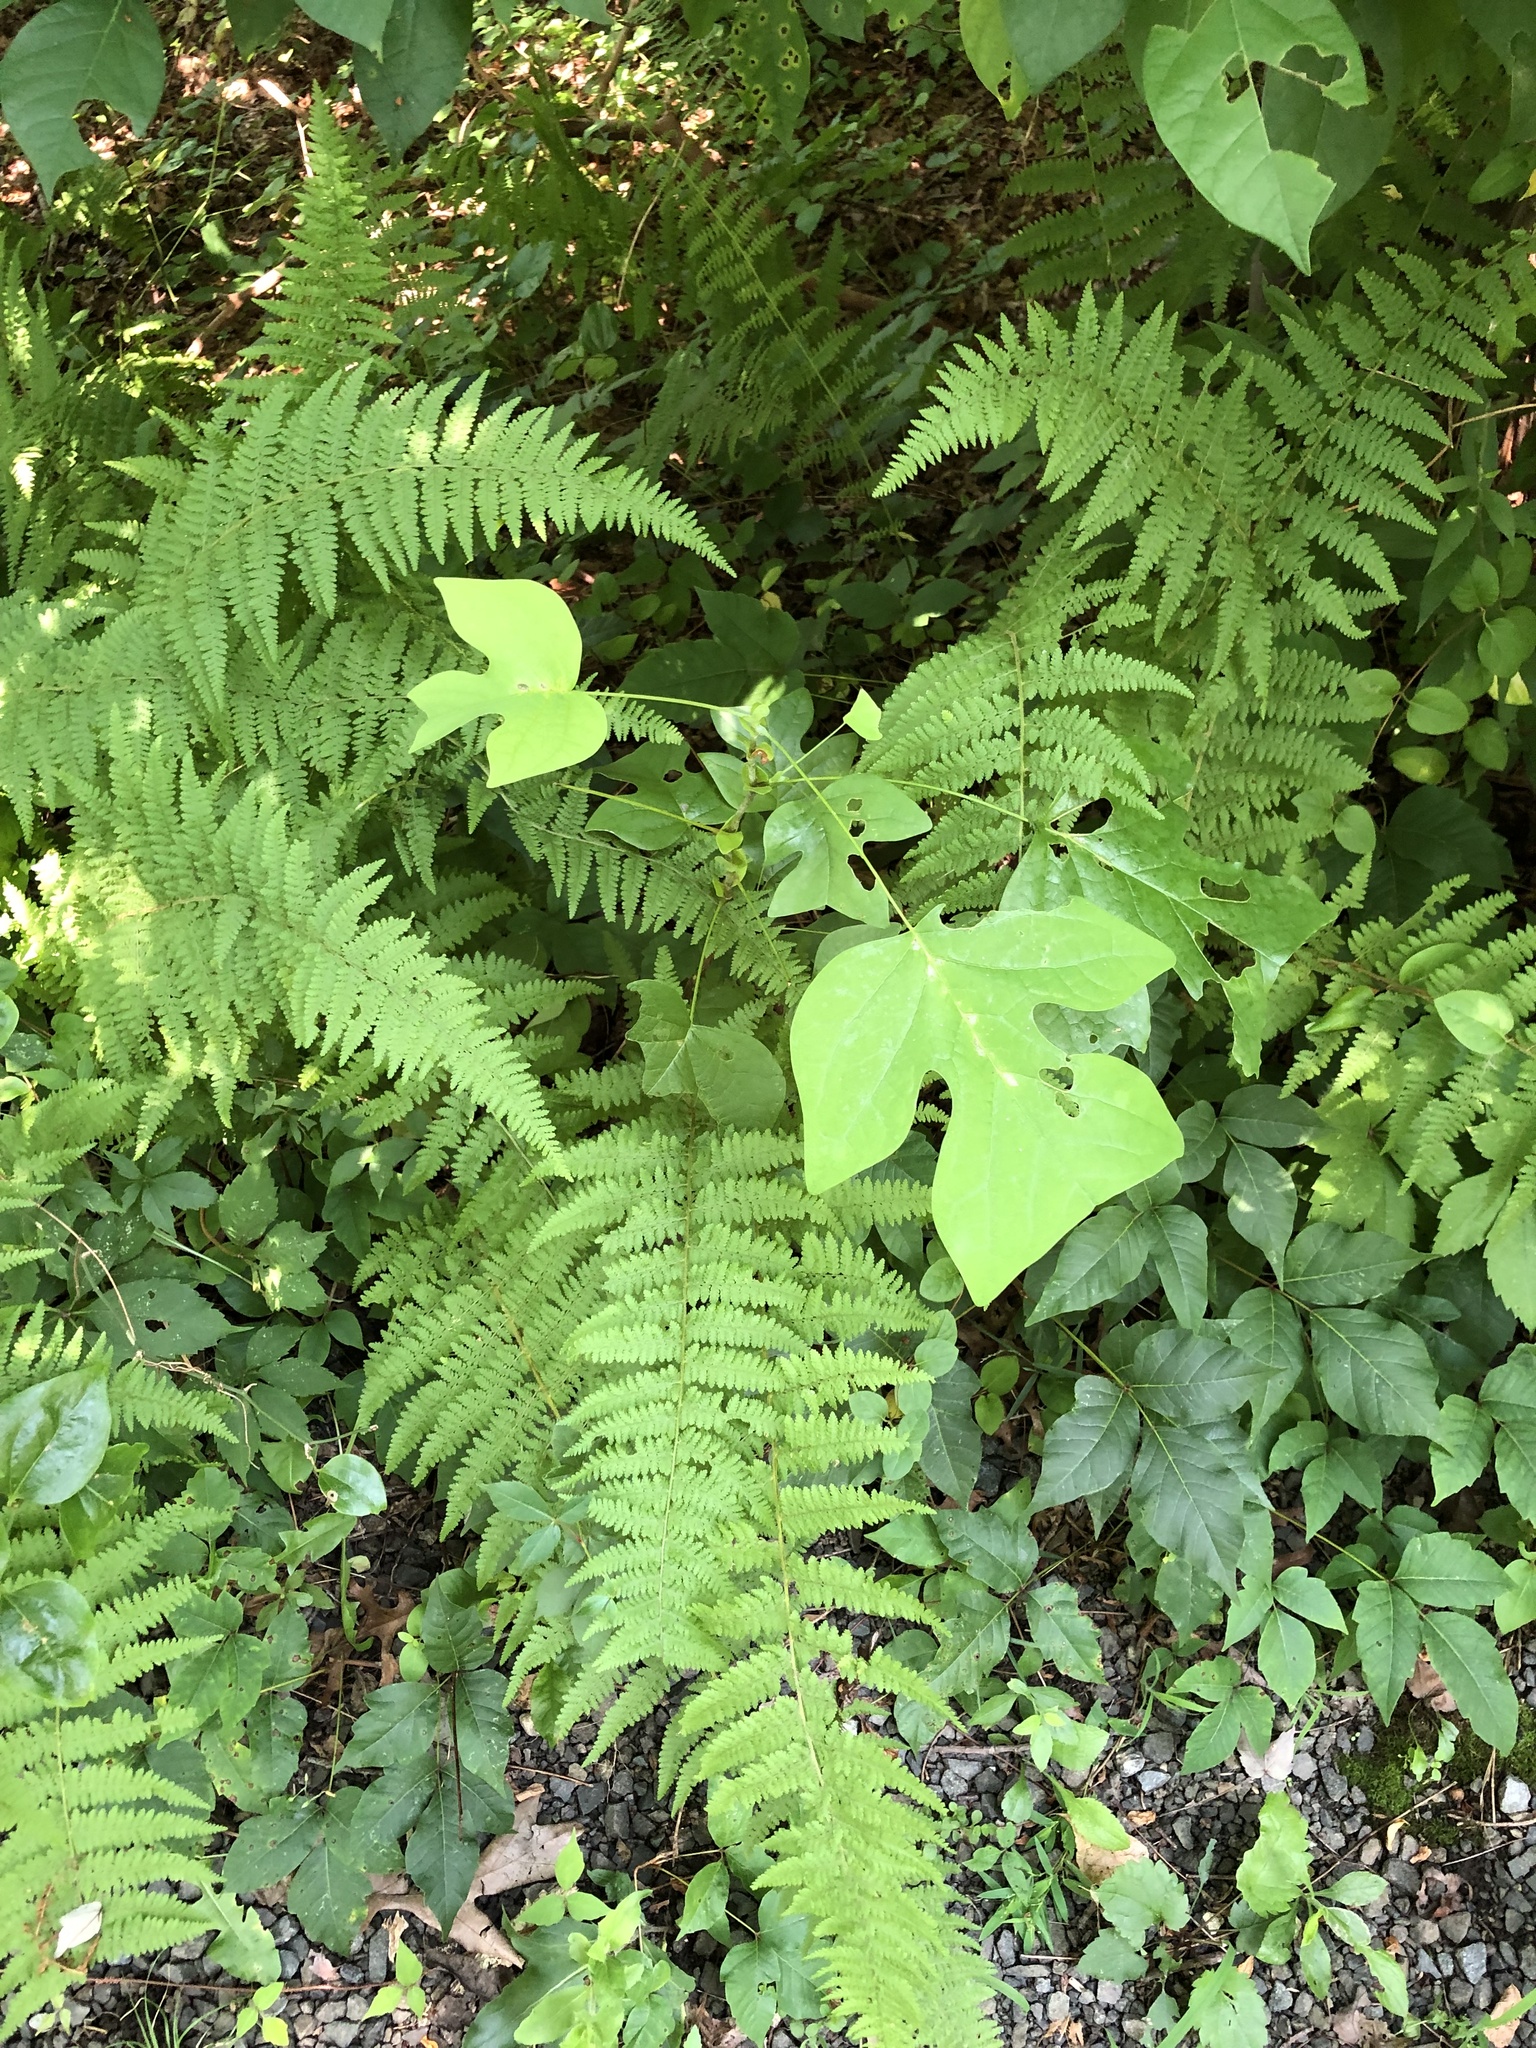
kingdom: Plantae
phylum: Tracheophyta
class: Magnoliopsida
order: Magnoliales
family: Magnoliaceae
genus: Liriodendron
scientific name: Liriodendron tulipifera
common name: Tulip tree
